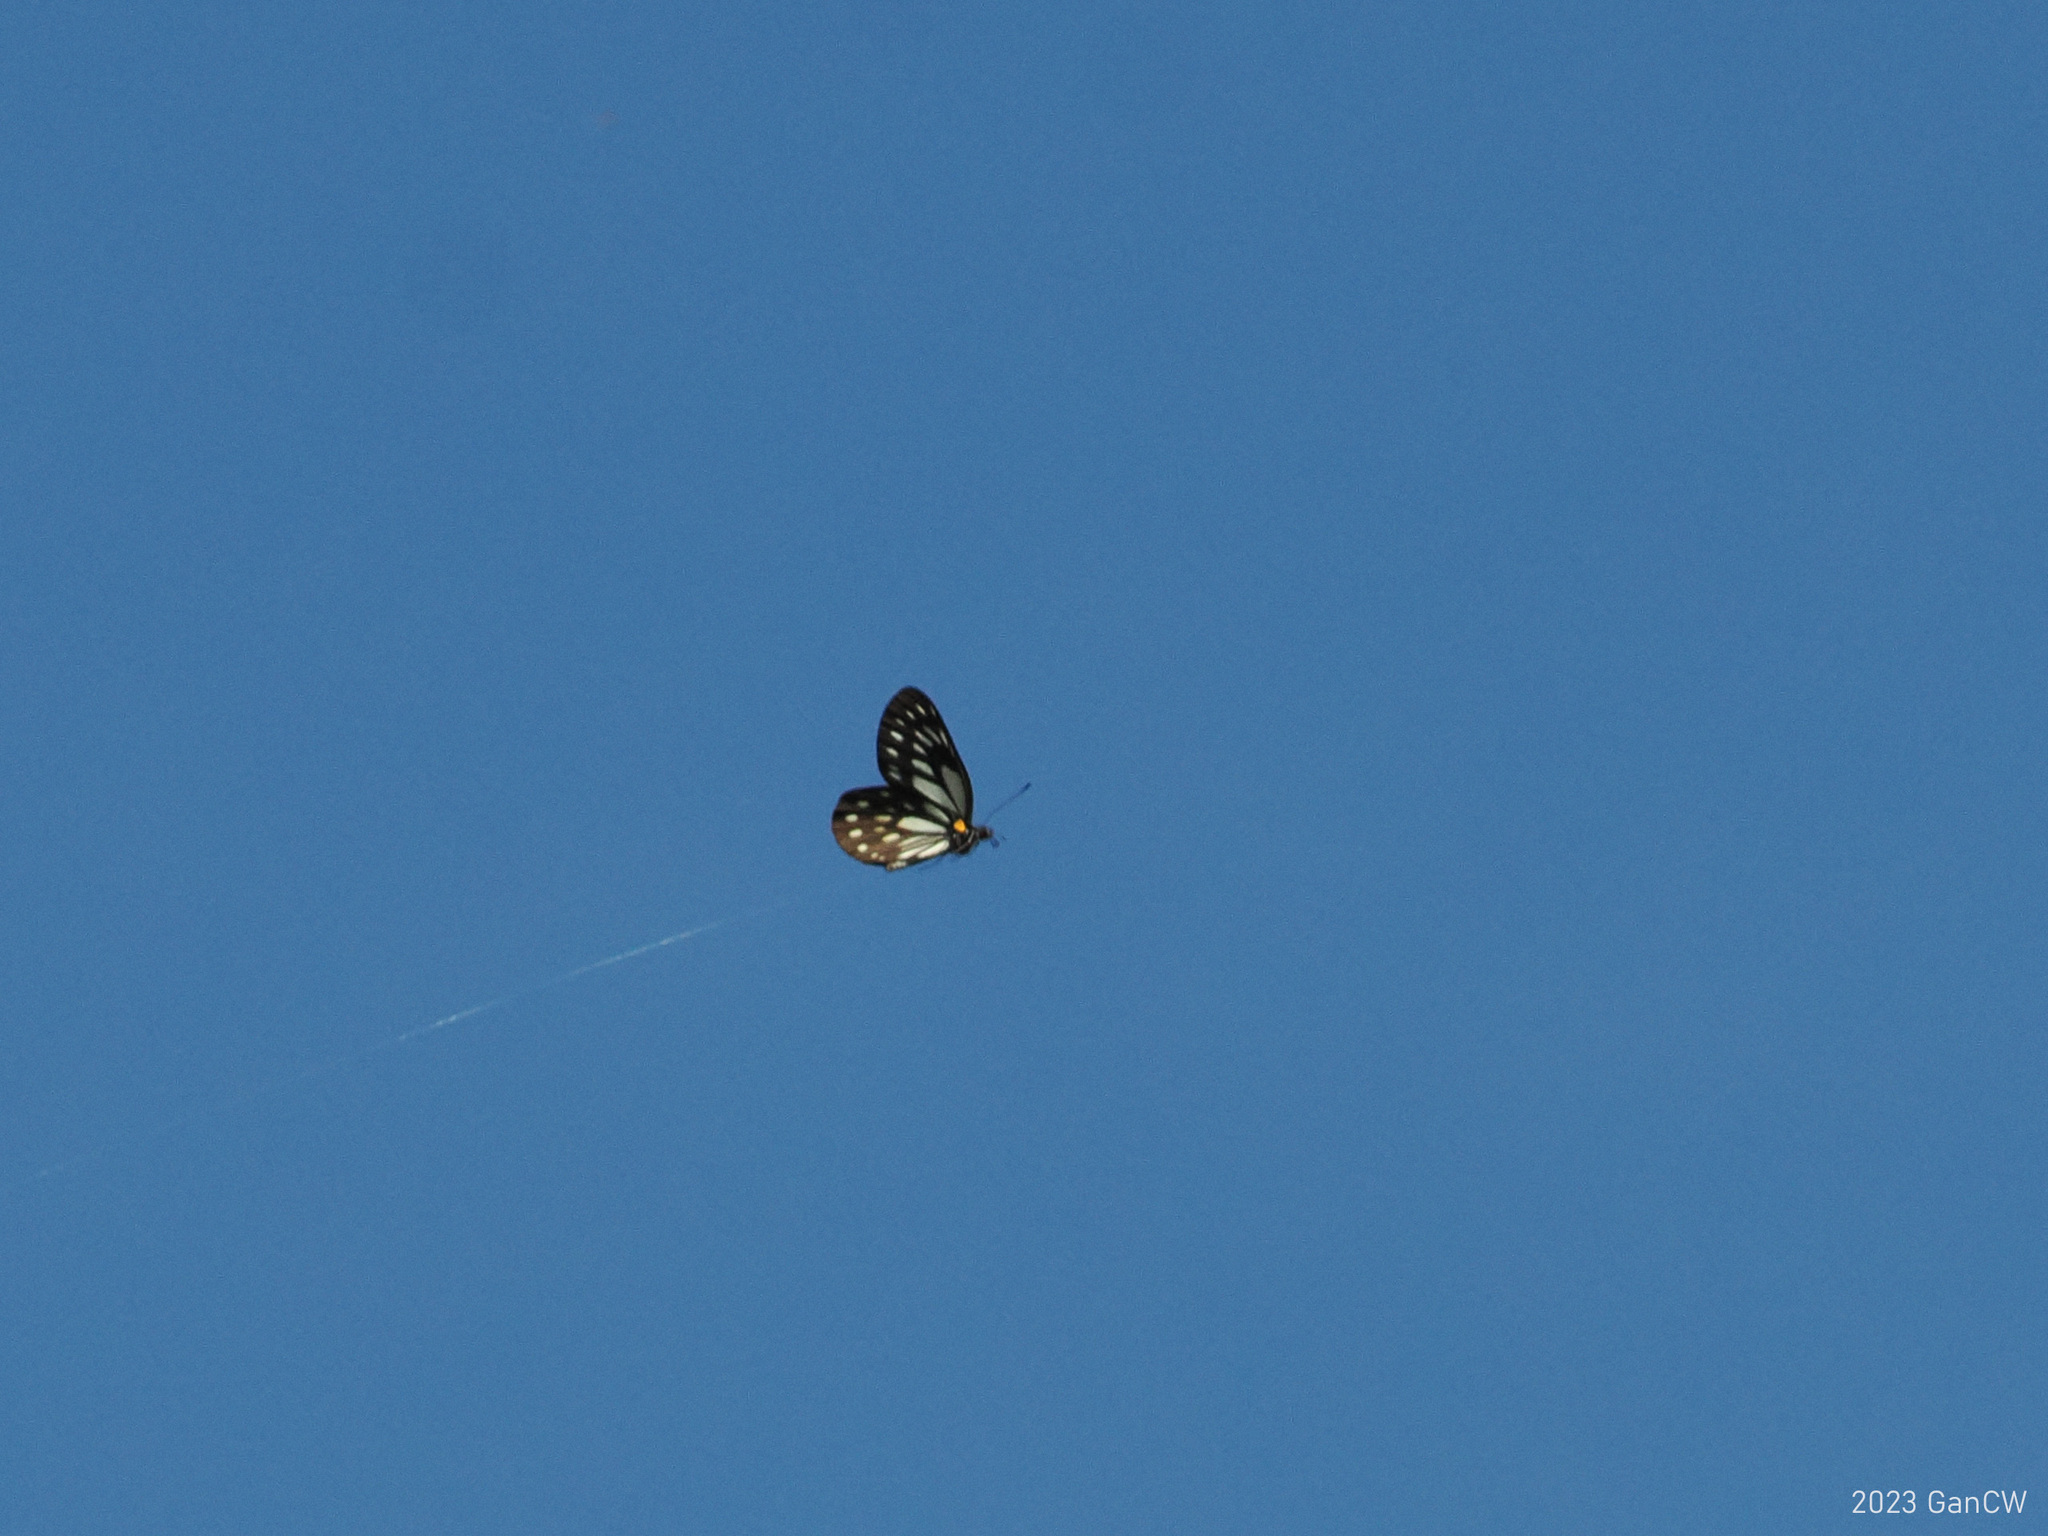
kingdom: Animalia
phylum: Arthropoda
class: Insecta
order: Lepidoptera
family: Pieridae
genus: Aporia
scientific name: Aporia agathon
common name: Great blackvein
